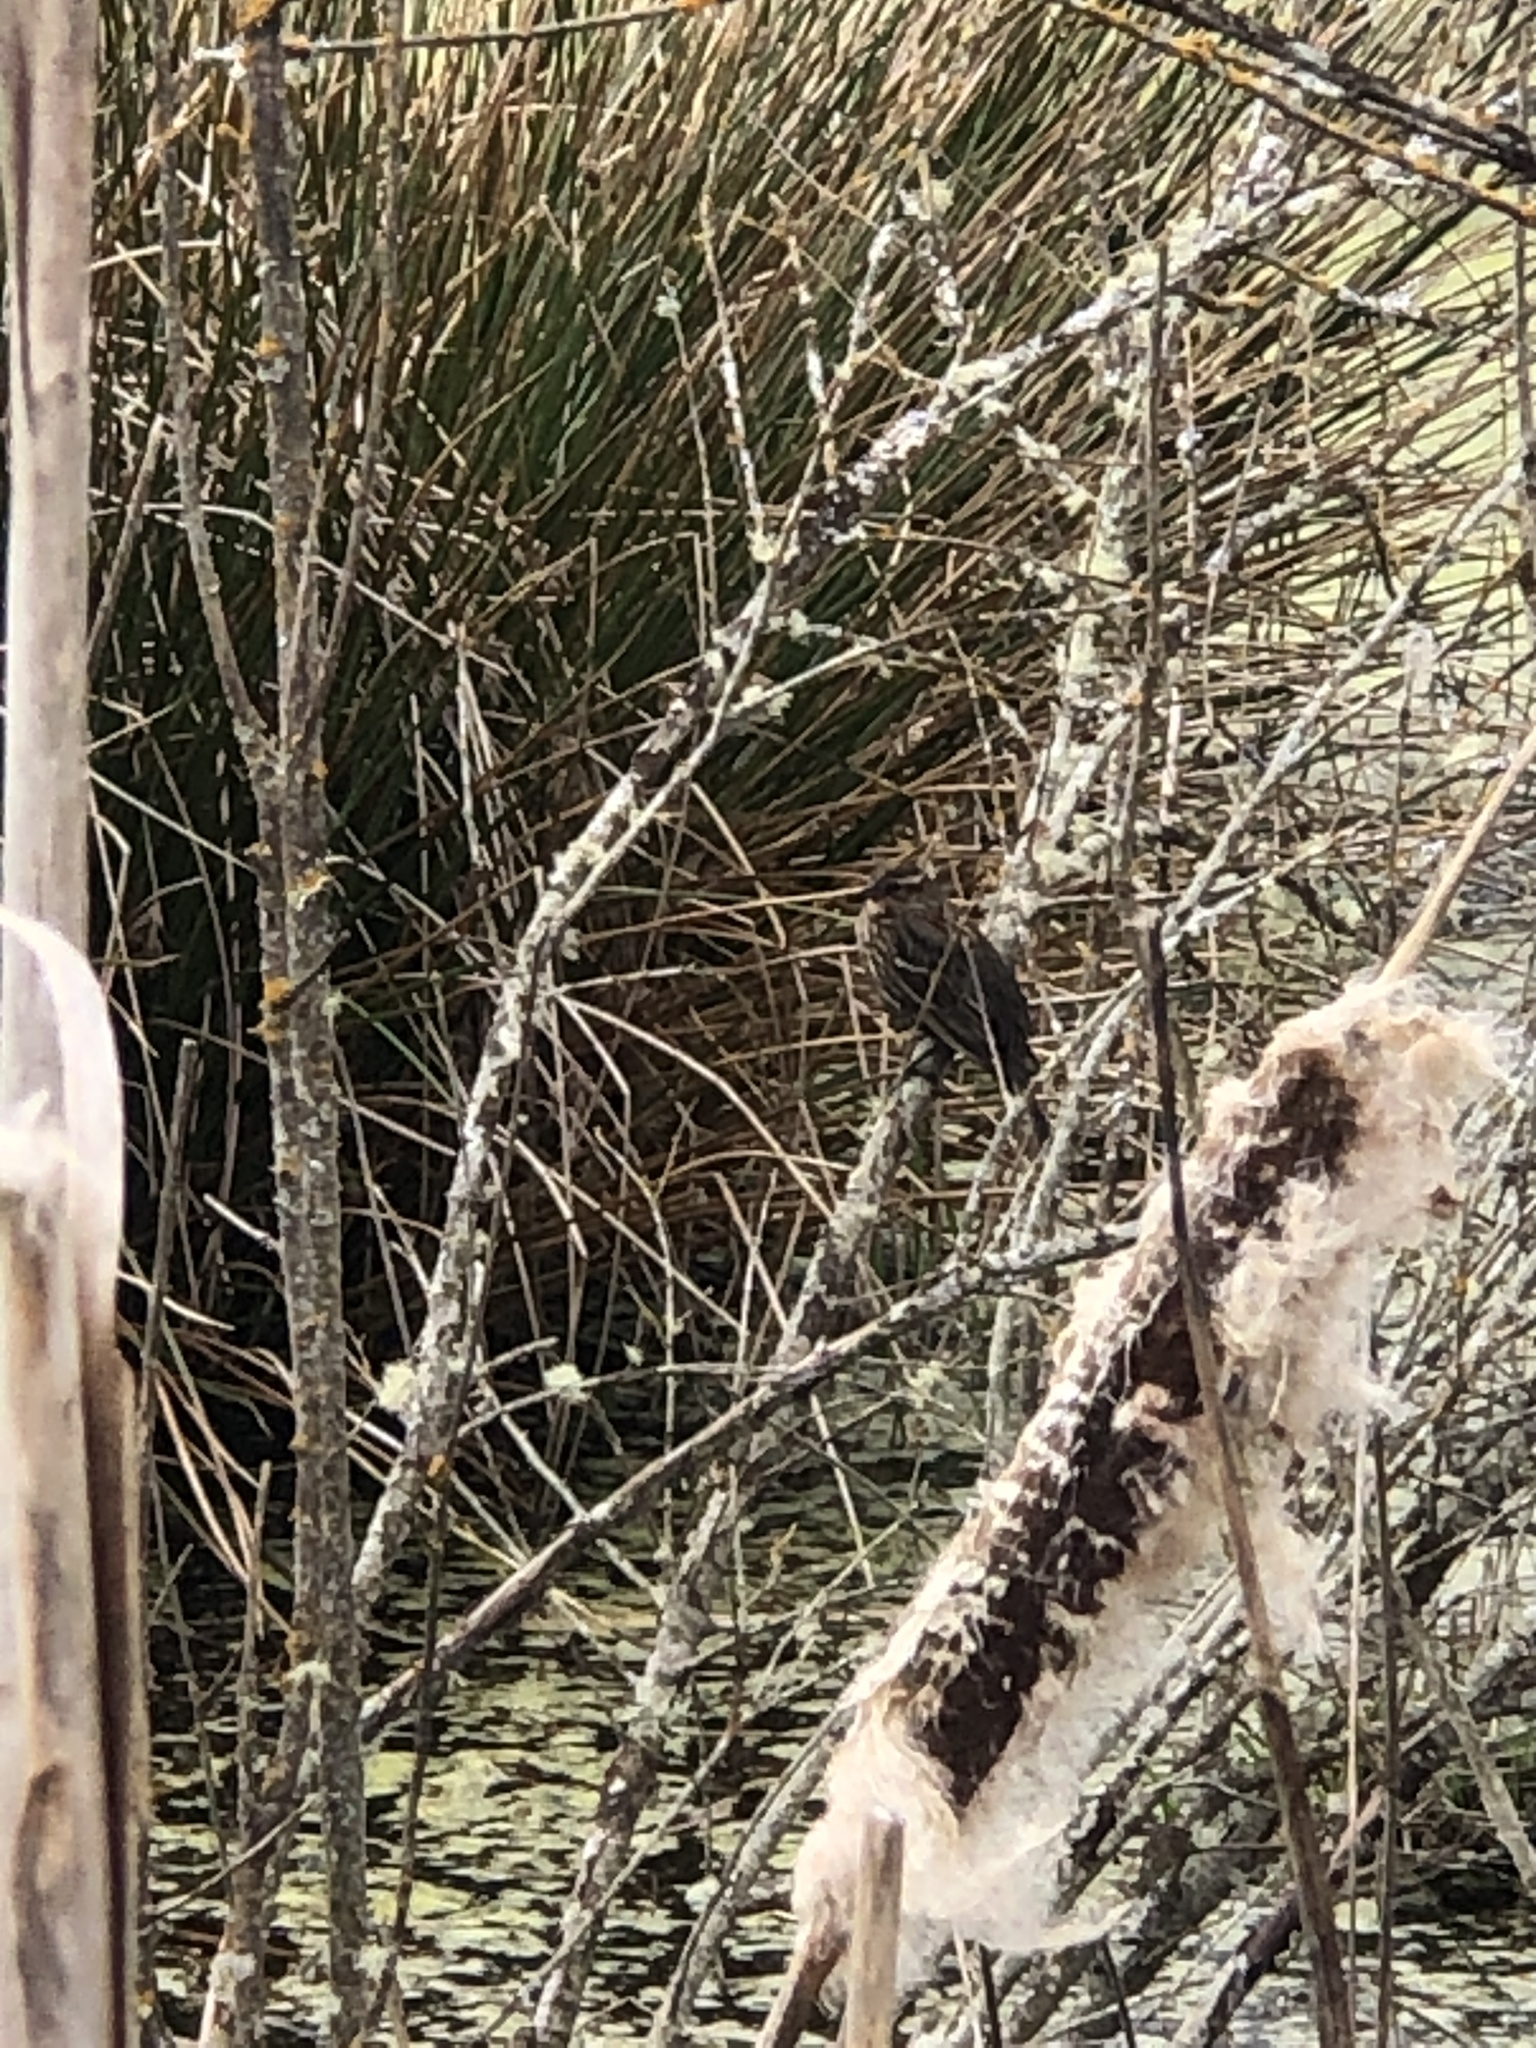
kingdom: Animalia
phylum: Chordata
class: Aves
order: Passeriformes
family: Icteridae
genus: Agelaius
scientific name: Agelaius phoeniceus
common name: Red-winged blackbird
